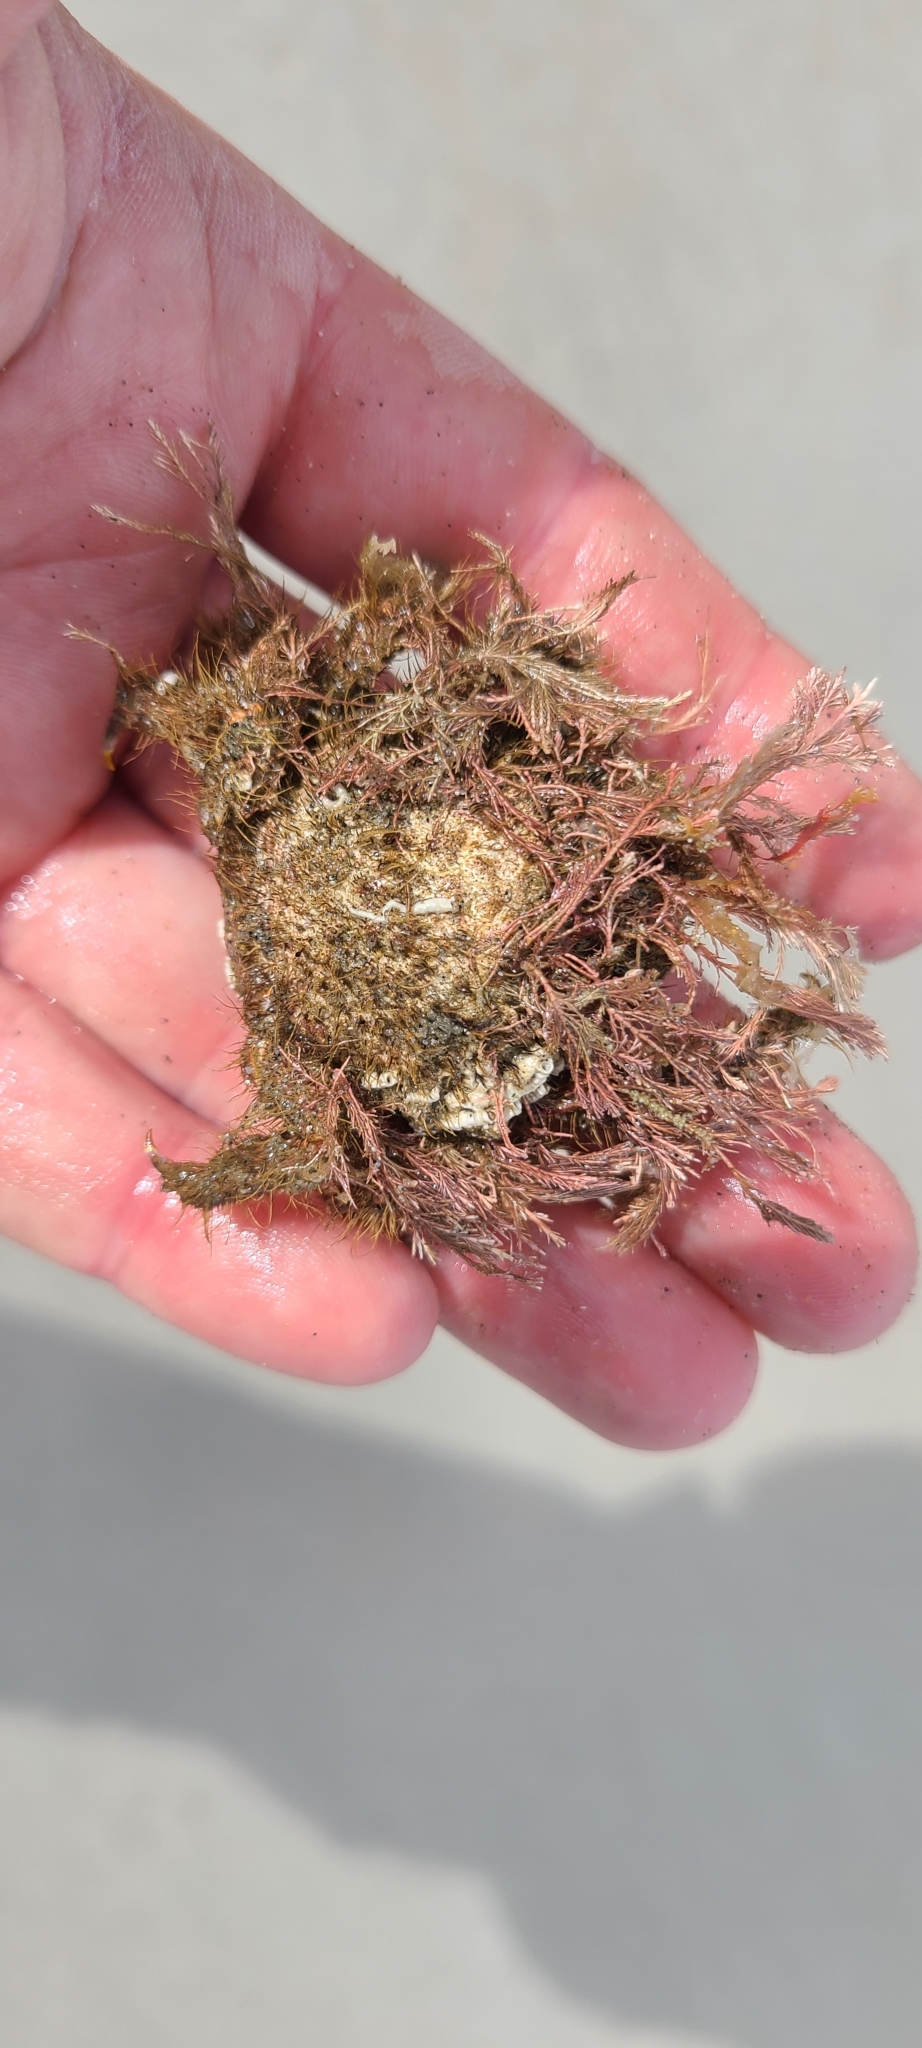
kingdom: Animalia
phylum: Arthropoda
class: Malacostraca
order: Decapoda
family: Majidae
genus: Notomithrax
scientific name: Notomithrax ursus
